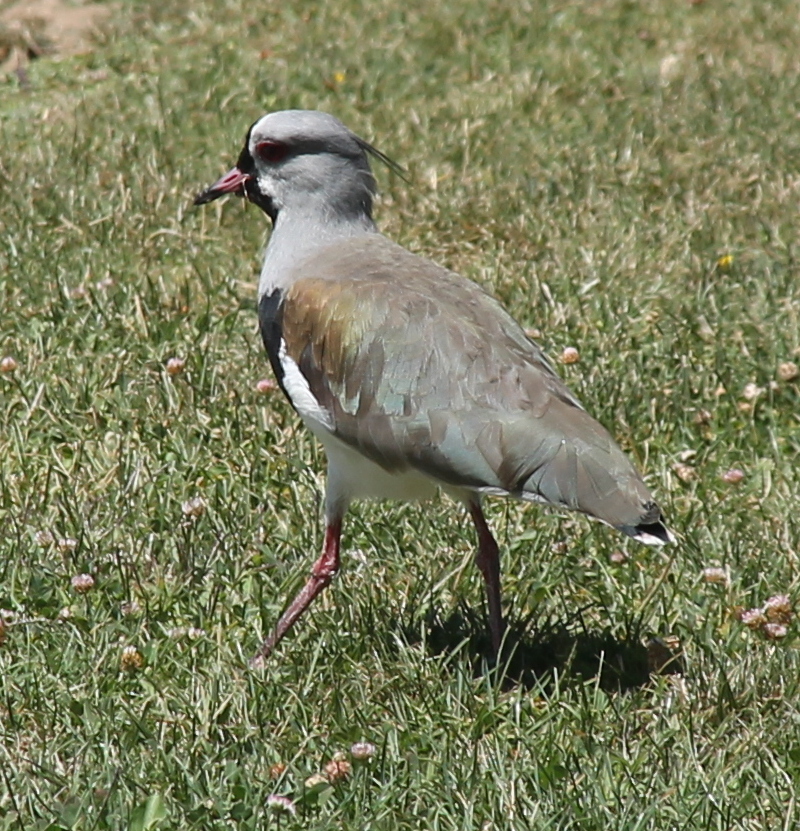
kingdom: Animalia
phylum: Chordata
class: Aves
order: Charadriiformes
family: Charadriidae
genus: Vanellus
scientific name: Vanellus chilensis
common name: Southern lapwing
